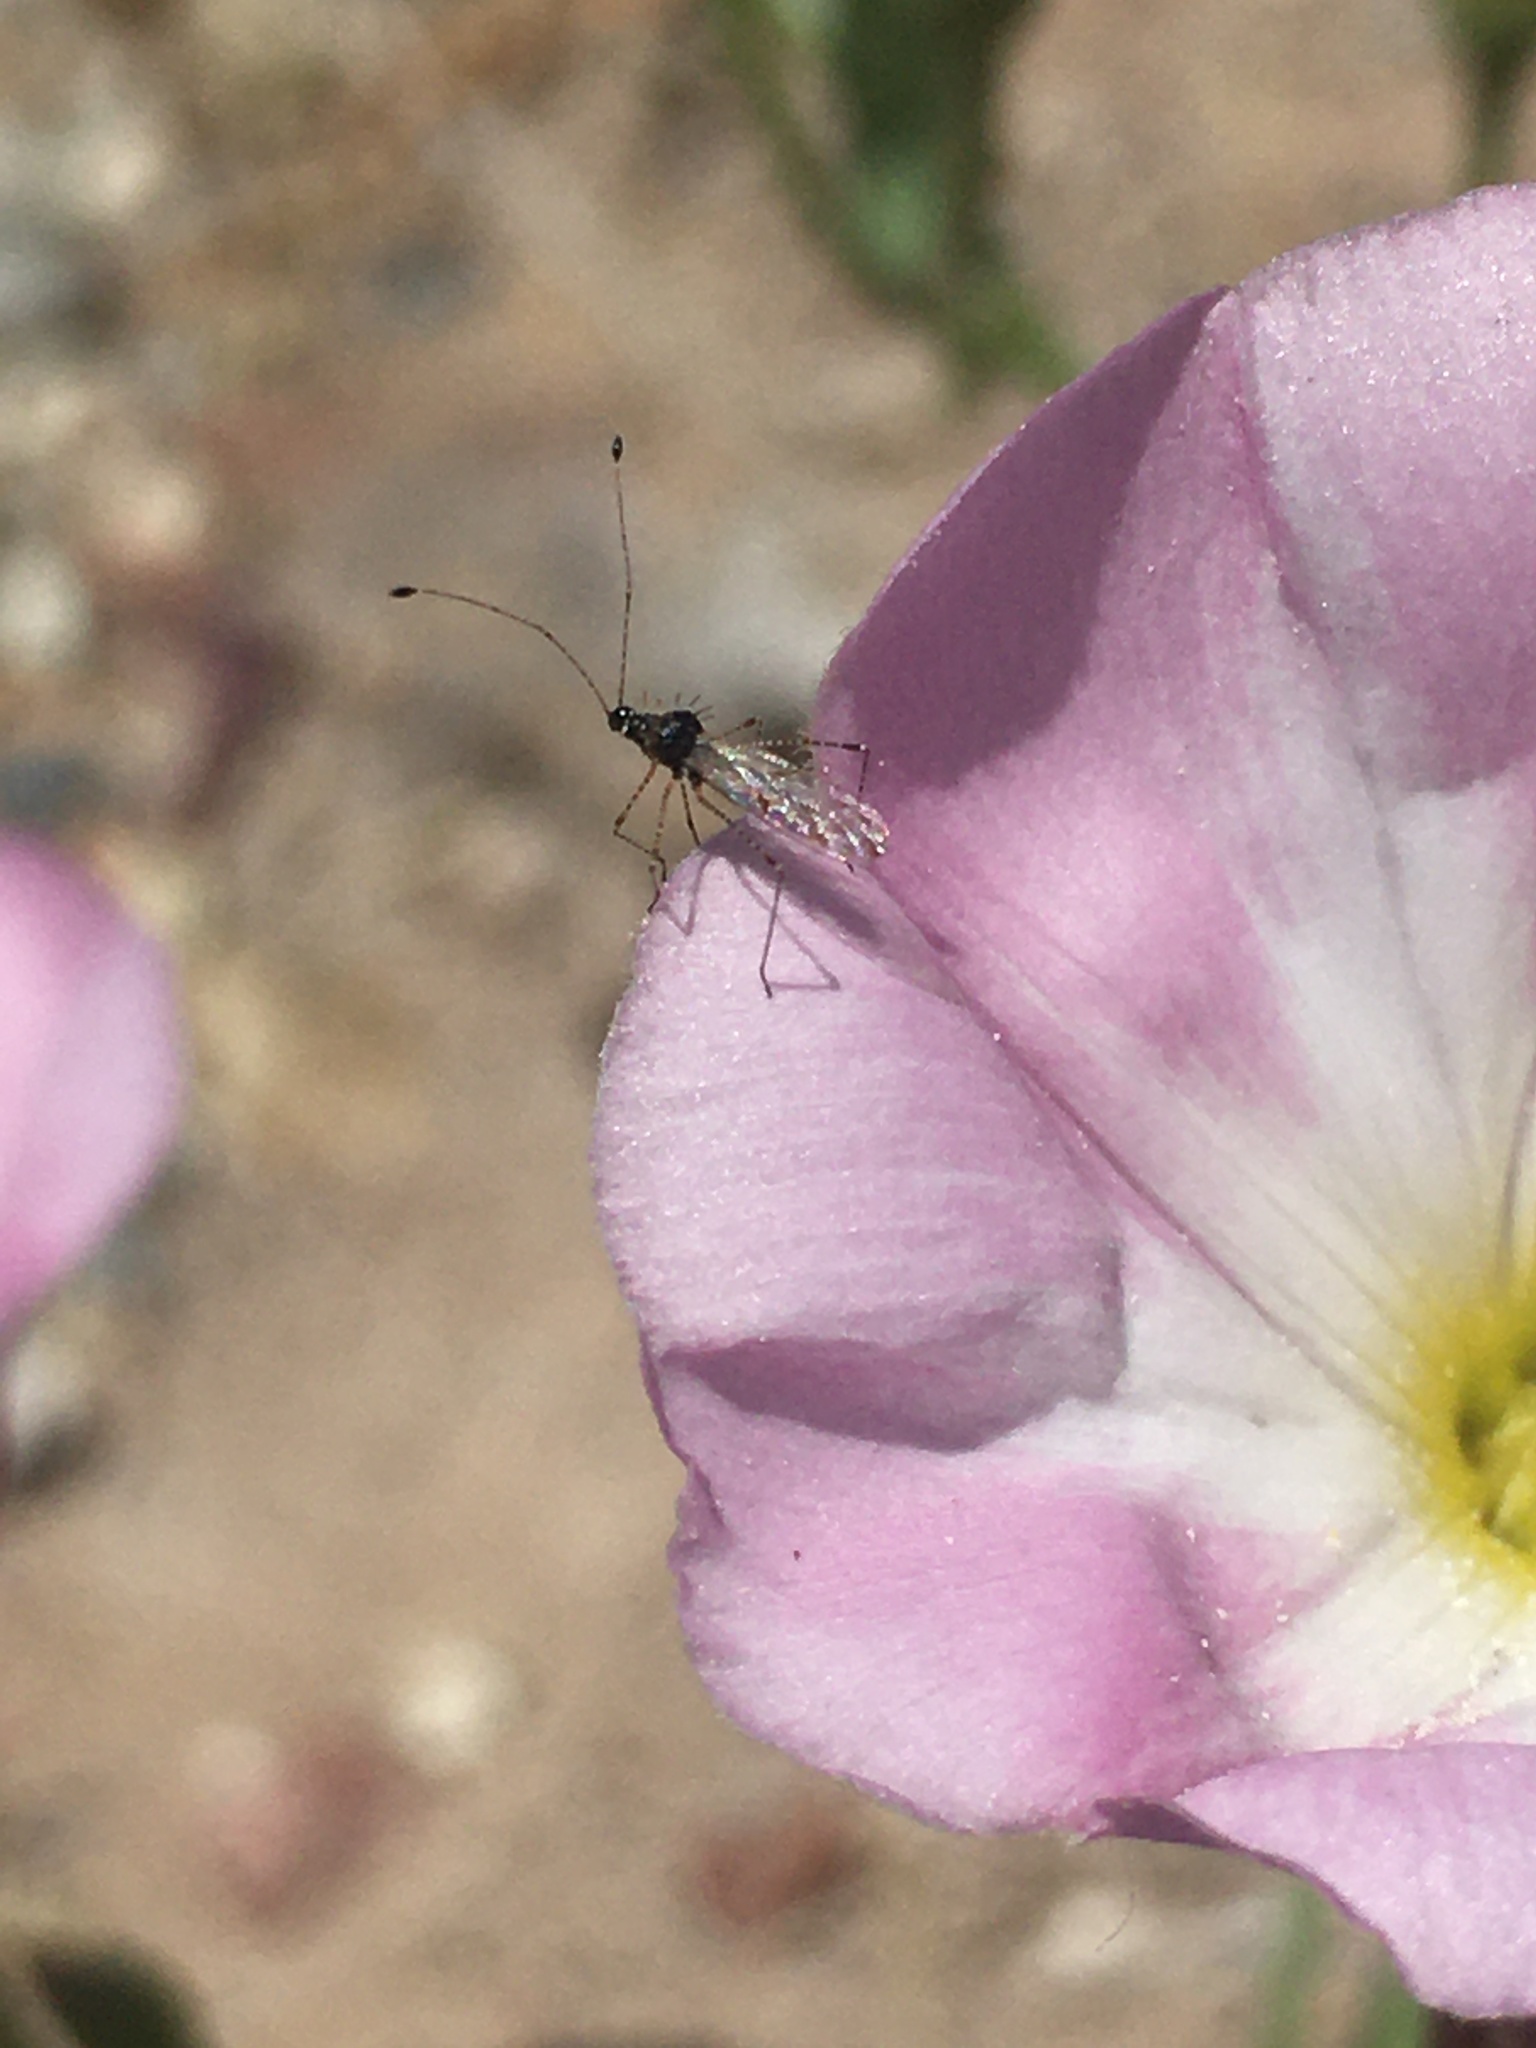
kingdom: Animalia
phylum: Arthropoda
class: Insecta
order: Hemiptera
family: Berytidae
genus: Pronotacantha
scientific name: Pronotacantha annulata
